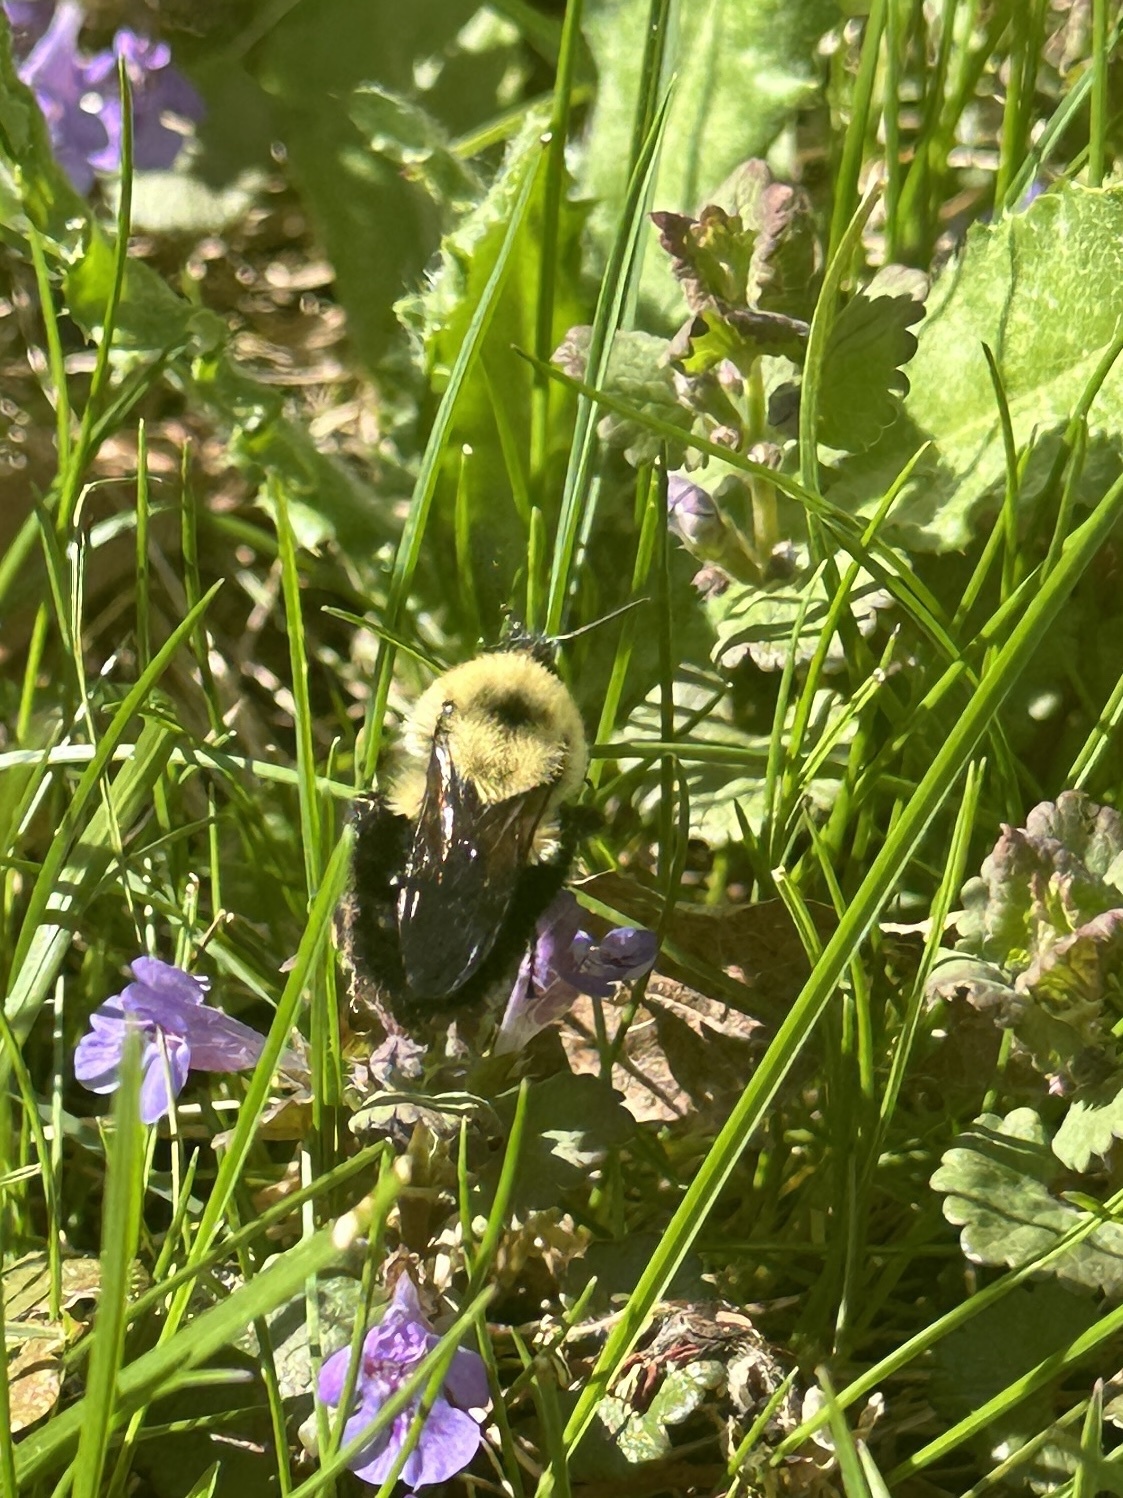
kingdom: Animalia
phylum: Arthropoda
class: Insecta
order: Hymenoptera
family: Apidae
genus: Bombus
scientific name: Bombus bimaculatus
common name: Two-spotted bumble bee
